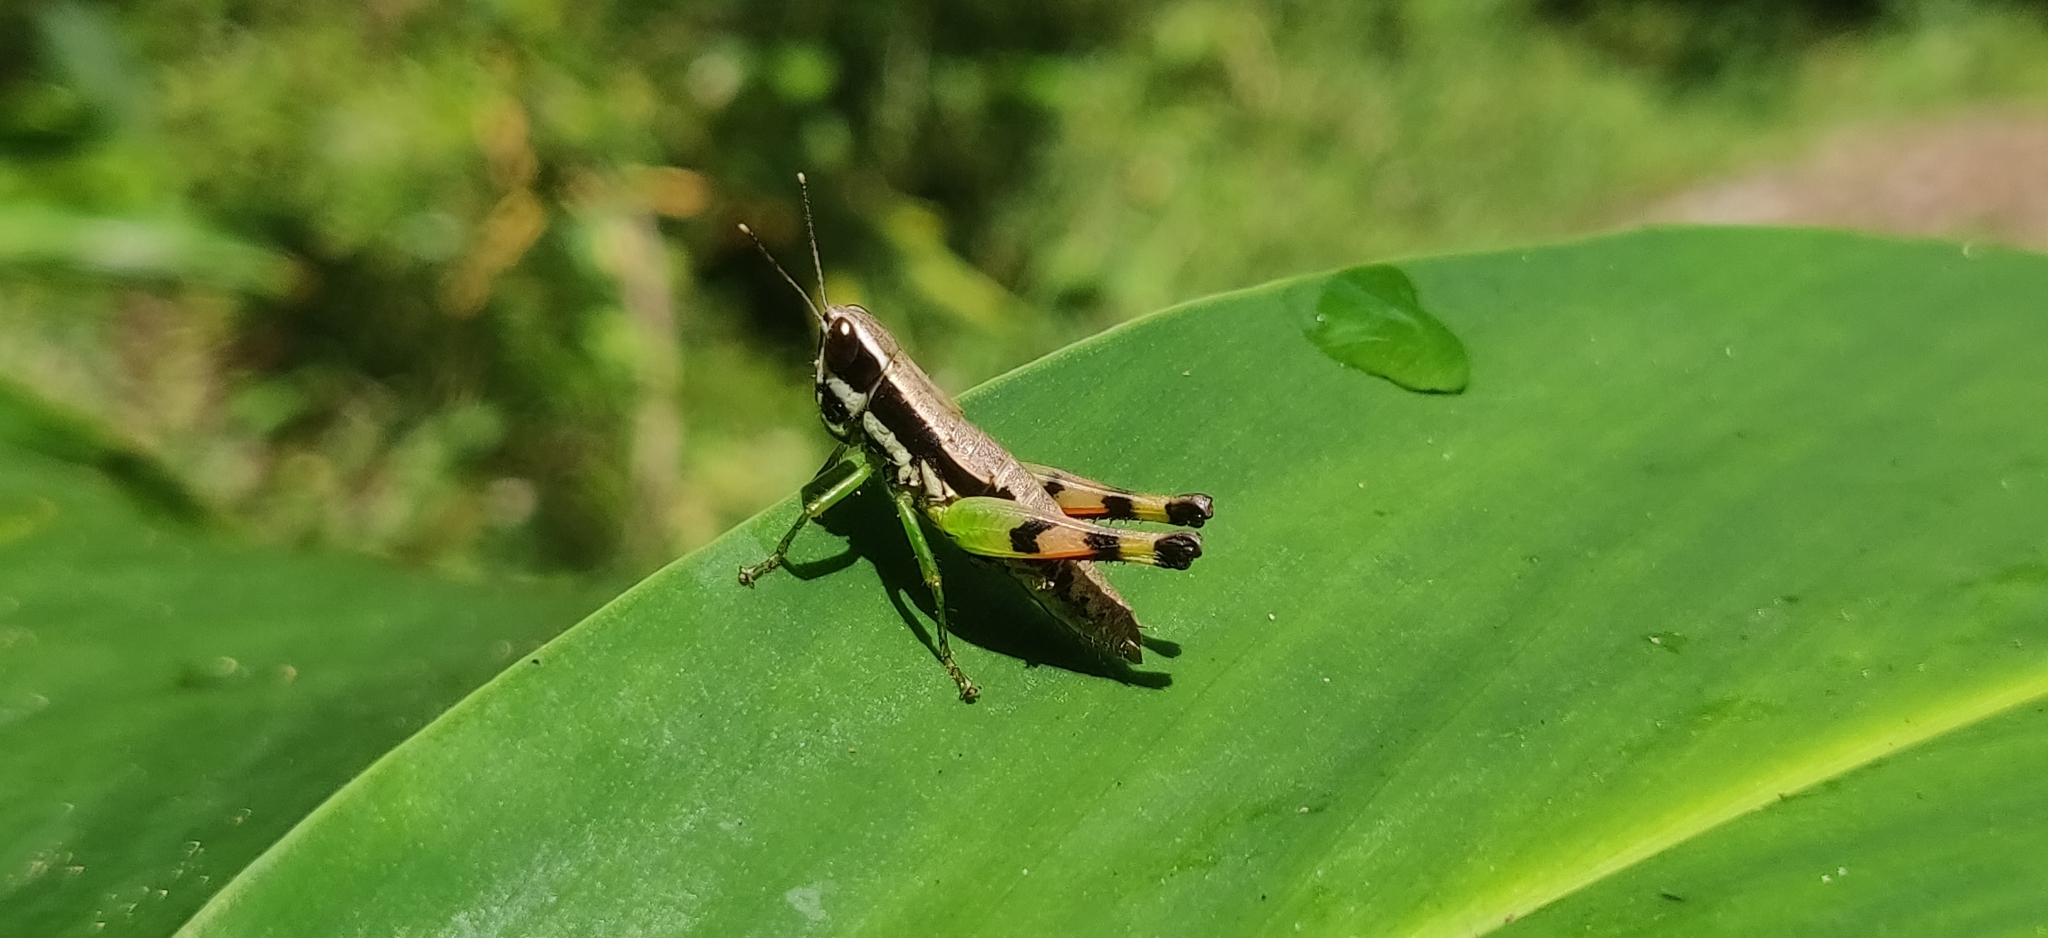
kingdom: Animalia
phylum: Arthropoda
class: Insecta
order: Orthoptera
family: Acrididae
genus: Chitaura
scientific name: Chitaura indica
